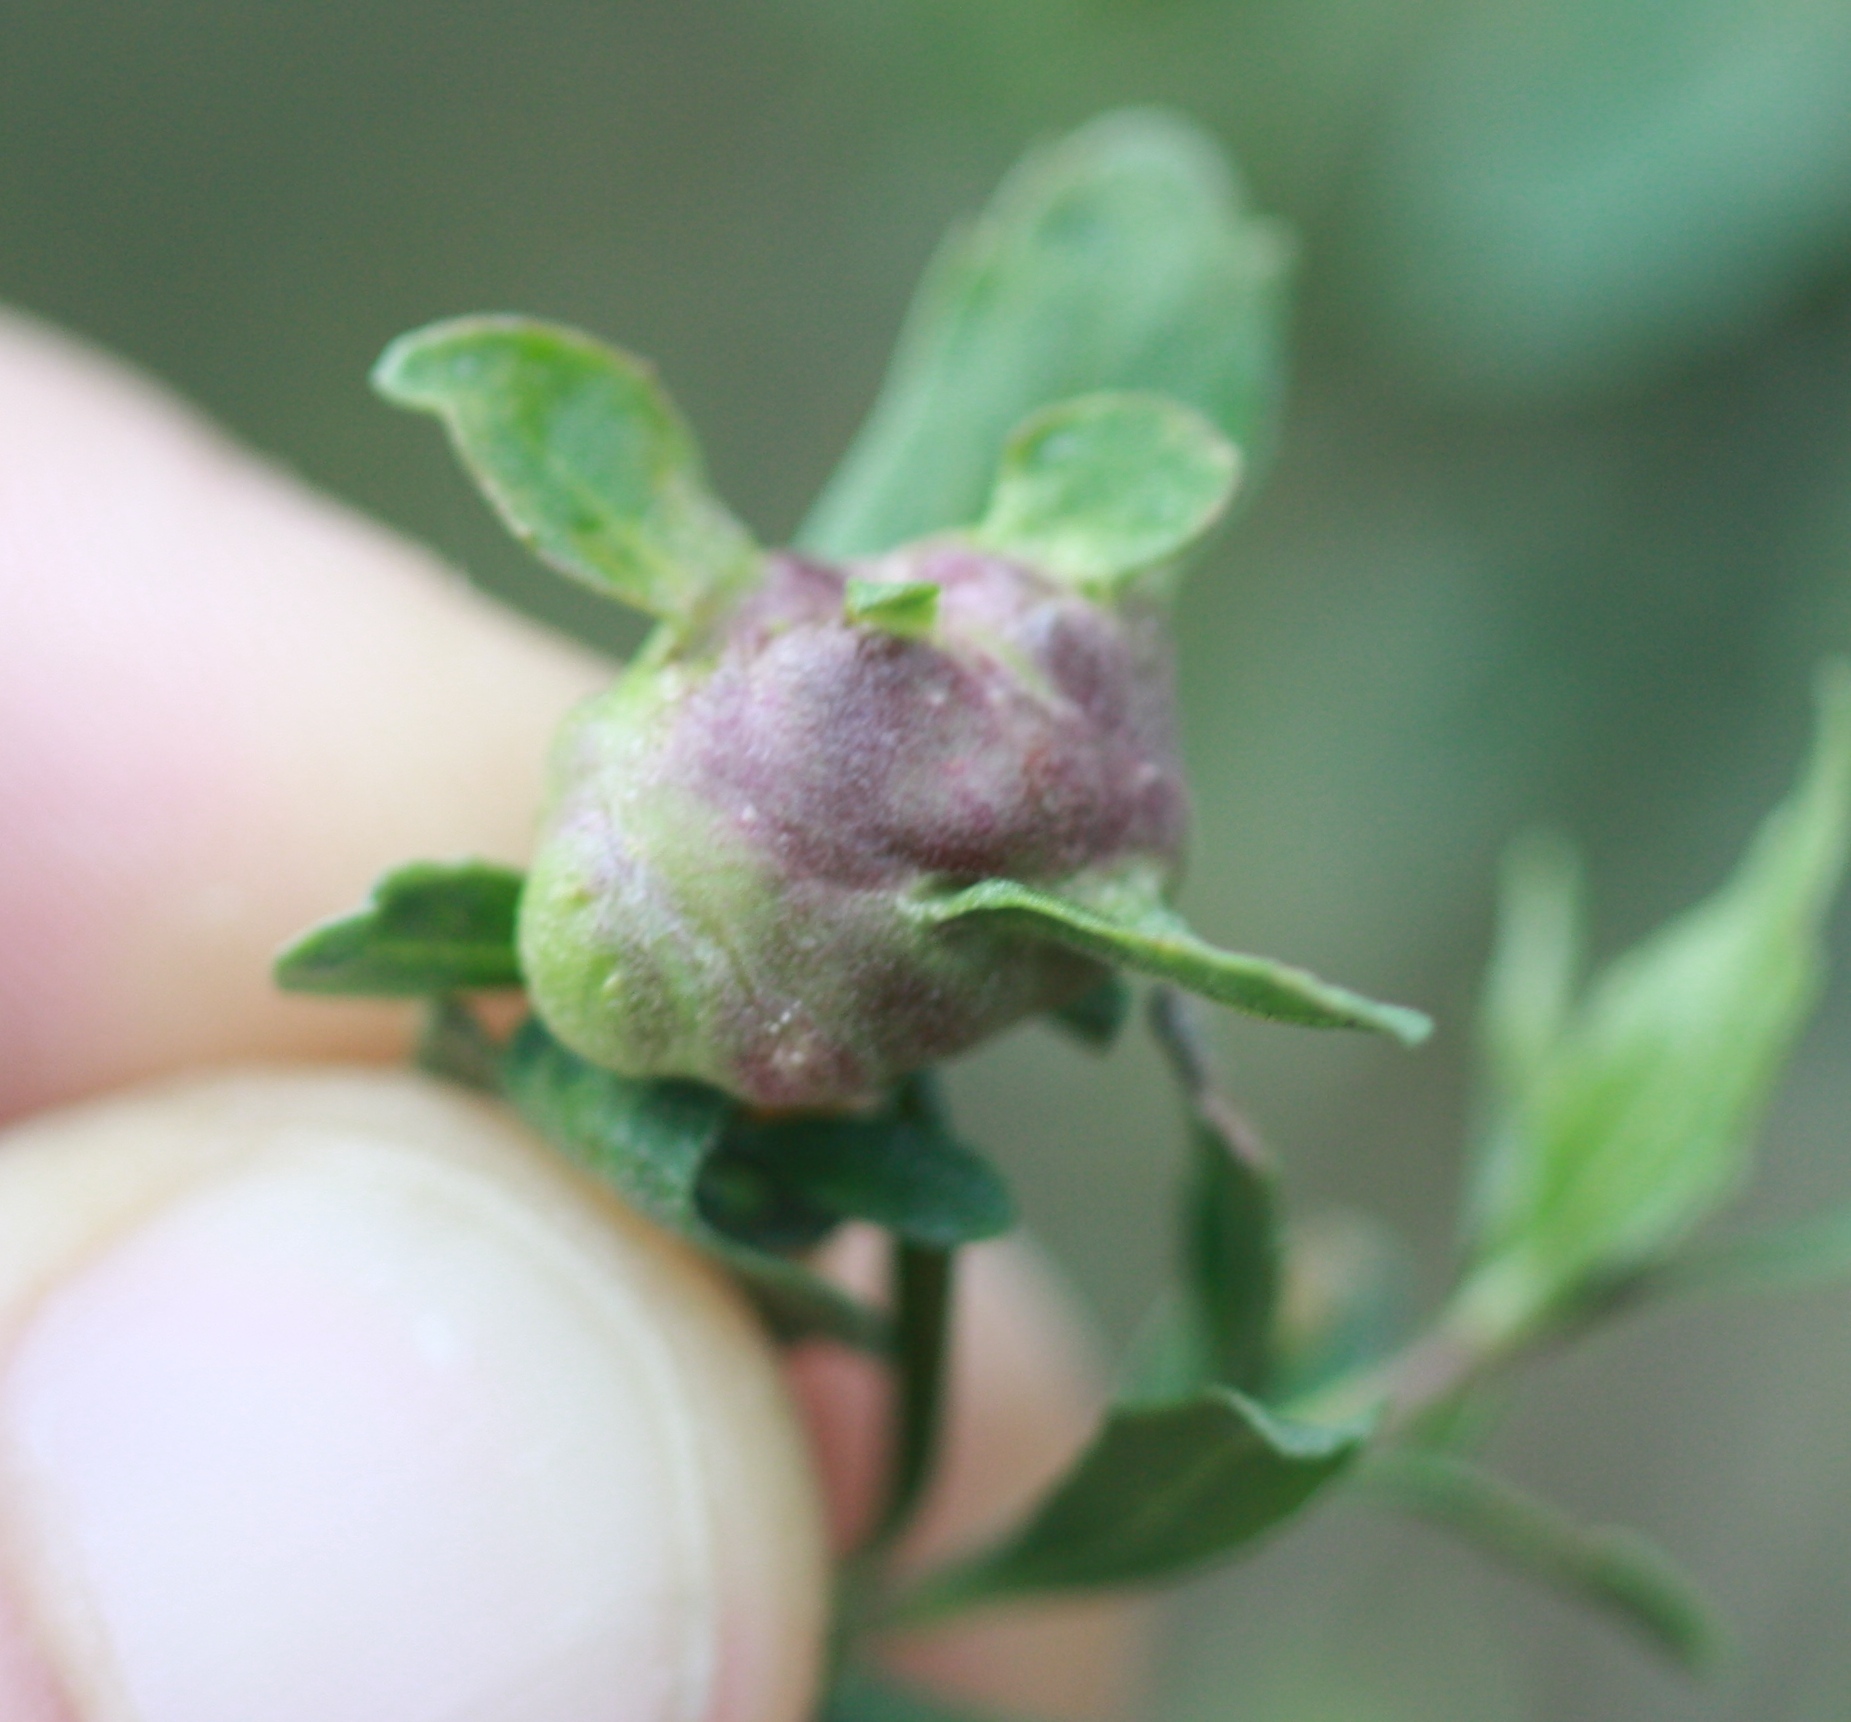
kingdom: Animalia
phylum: Arthropoda
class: Insecta
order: Diptera
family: Cecidomyiidae
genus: Rhopalomyia
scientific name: Rhopalomyia californica
